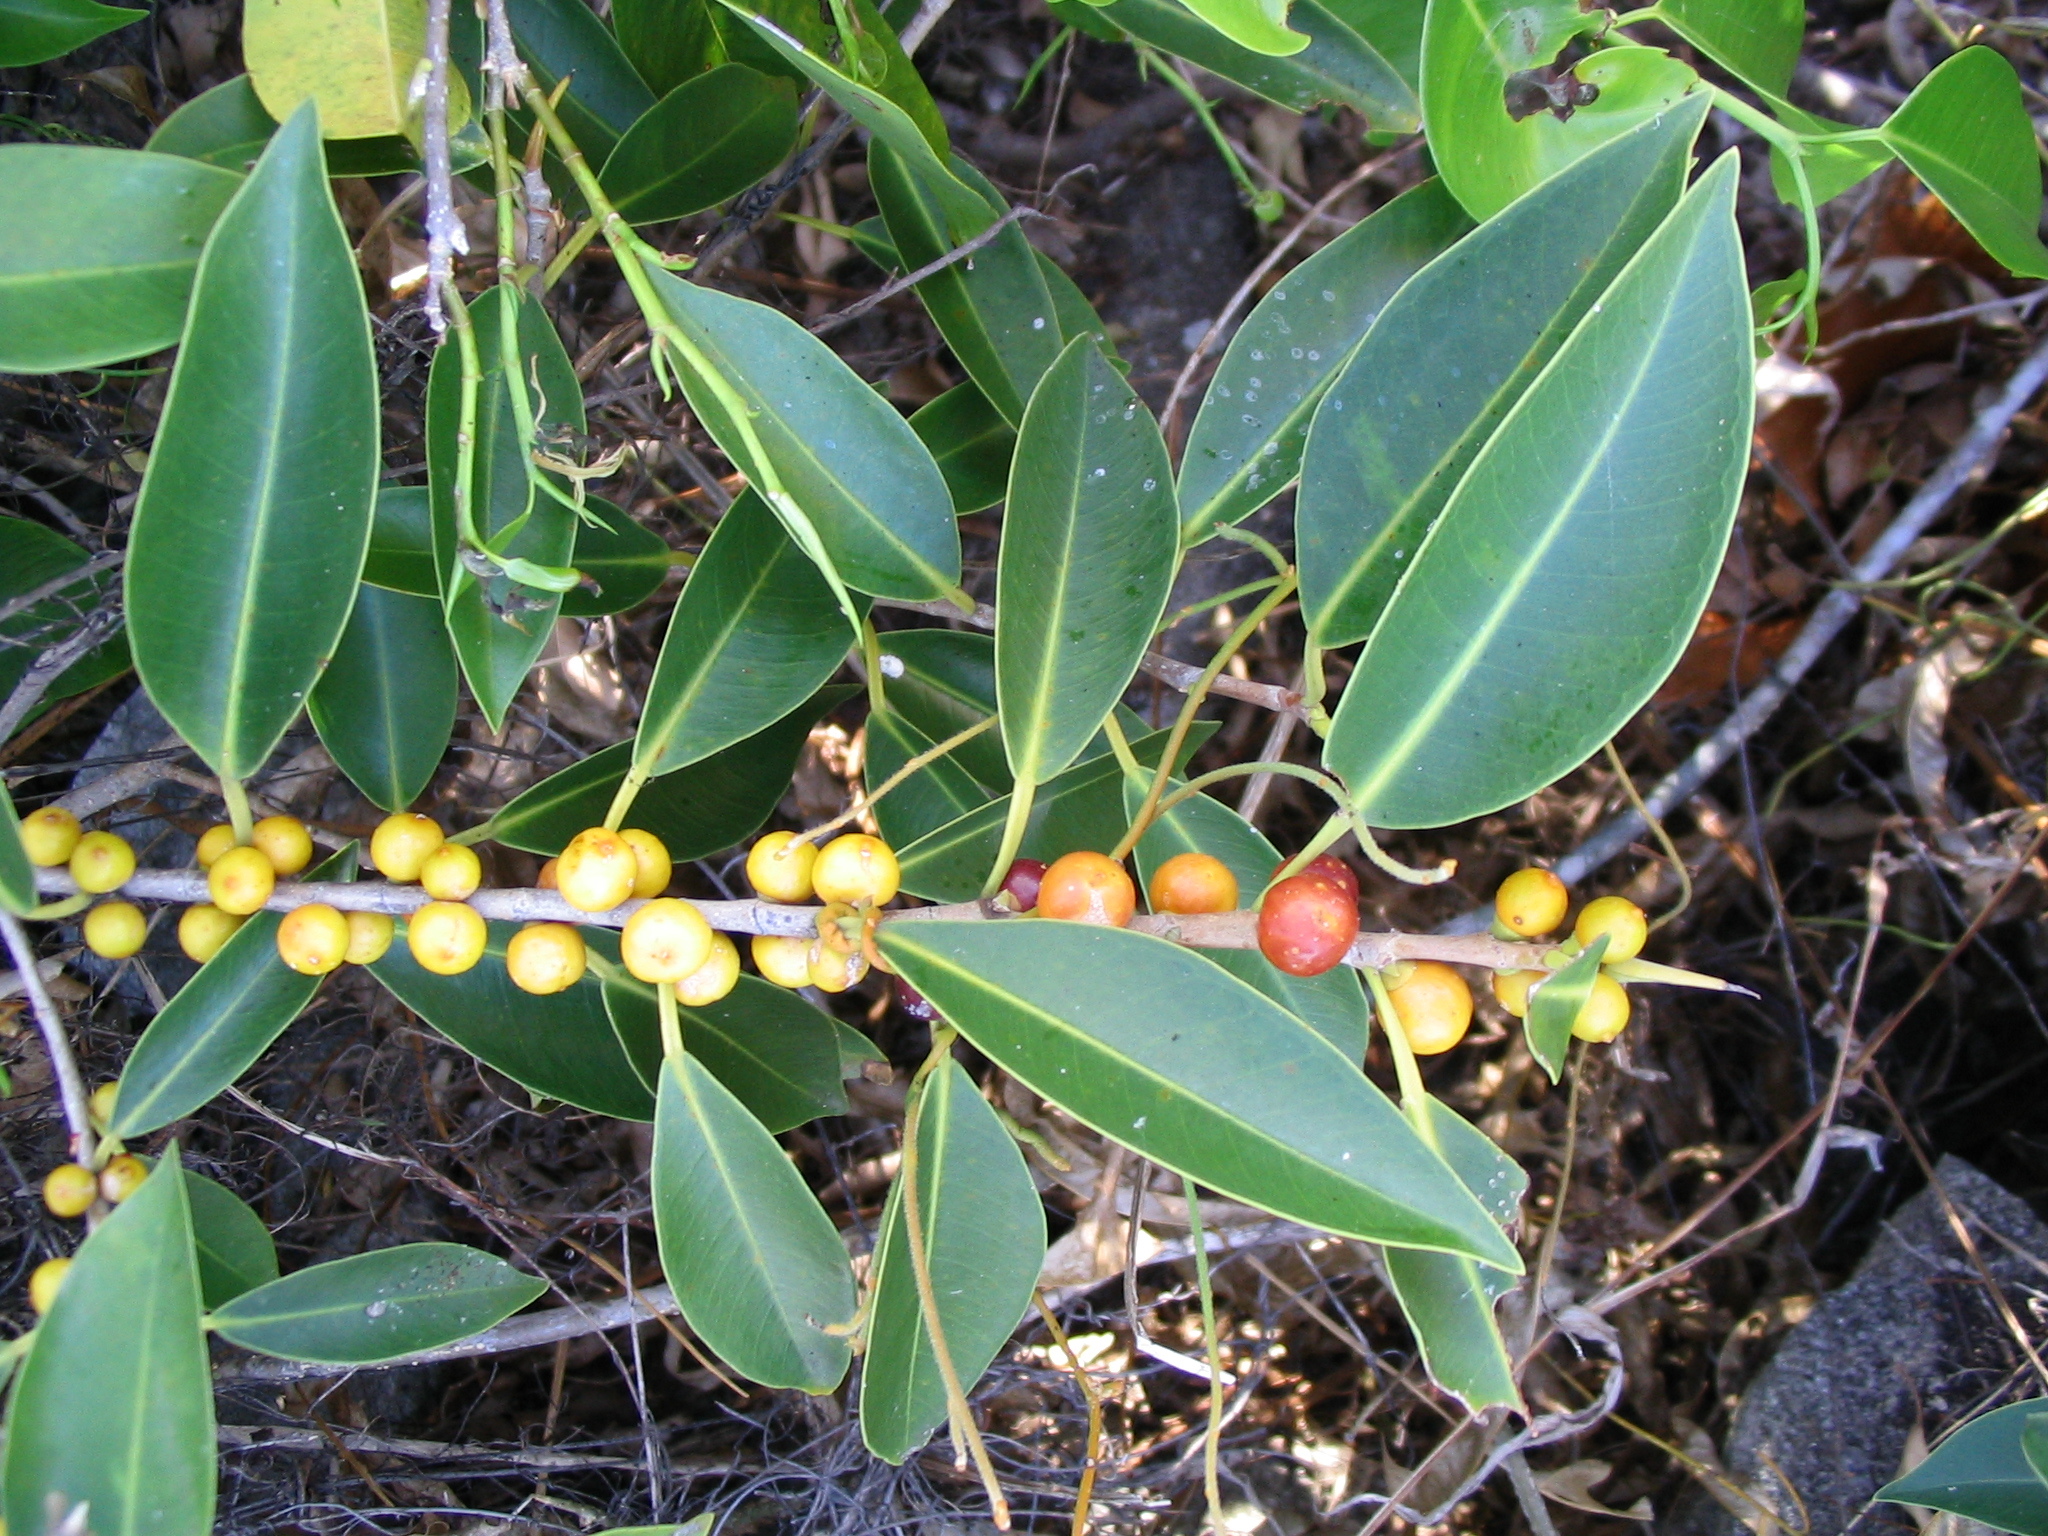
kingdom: Plantae
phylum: Tracheophyta
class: Magnoliopsida
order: Rosales
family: Moraceae
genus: Ficus
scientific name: Ficus obliqua
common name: Small-leaf fig
